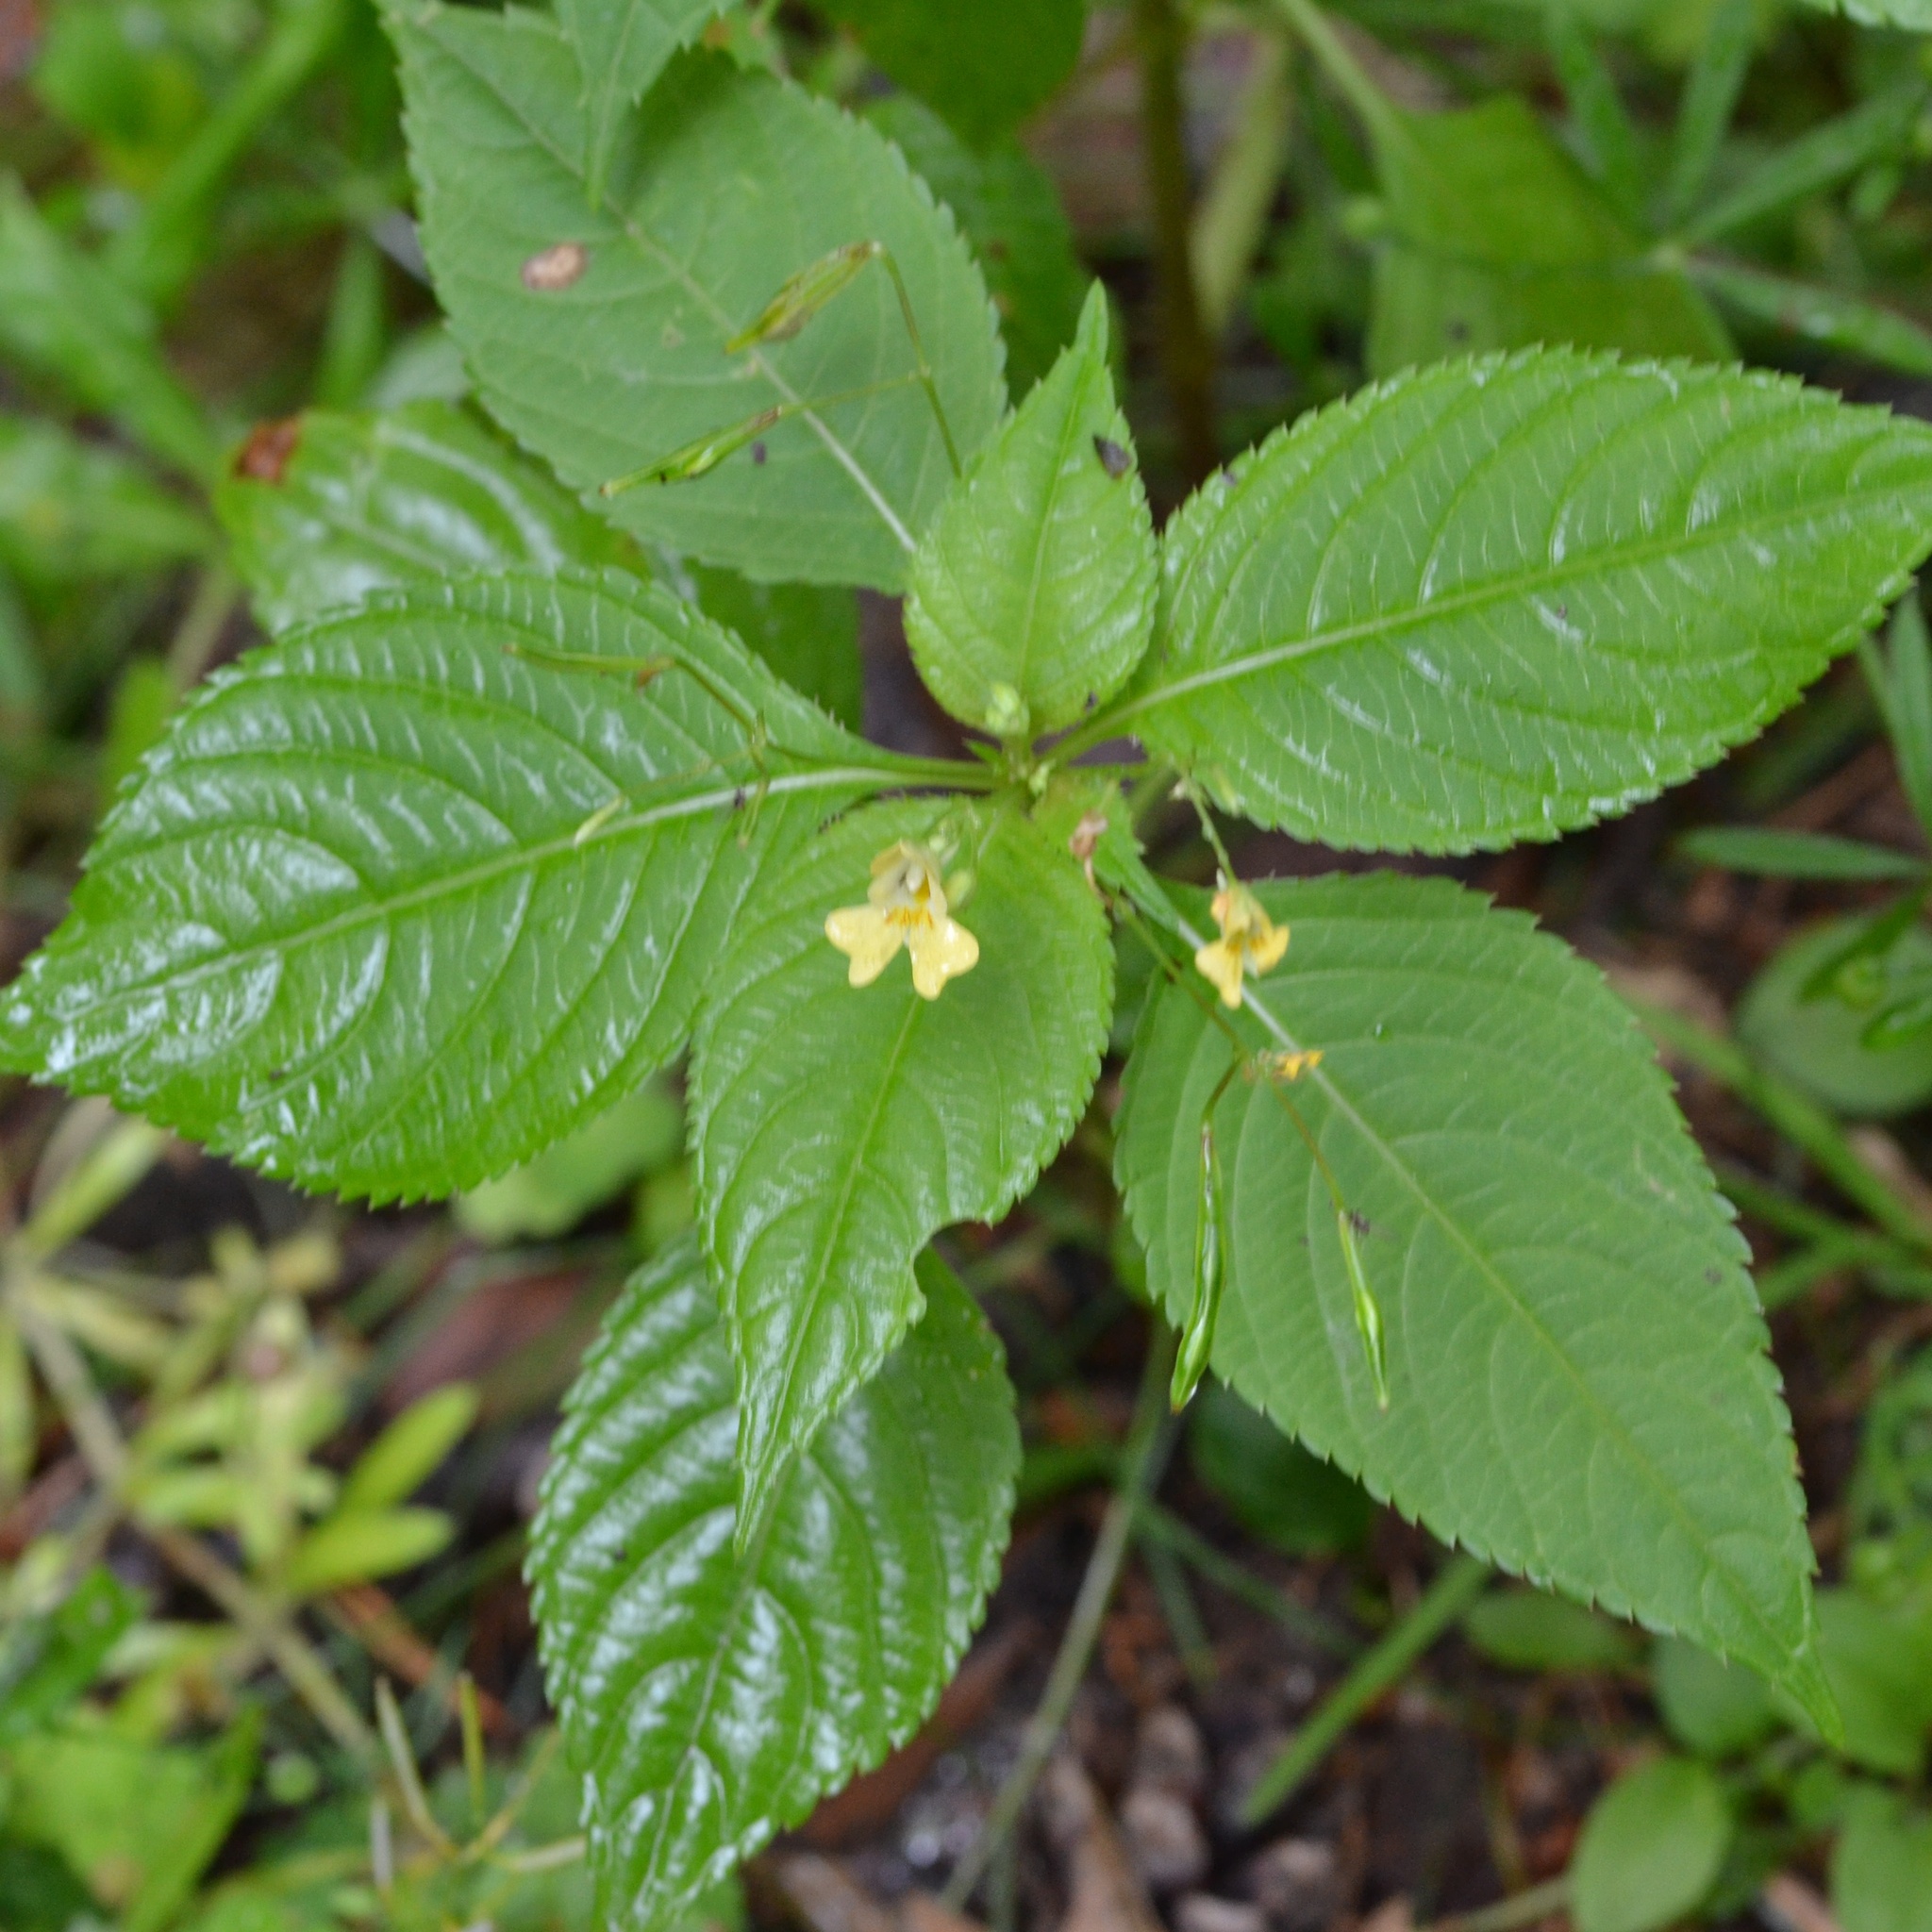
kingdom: Plantae
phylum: Tracheophyta
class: Magnoliopsida
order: Ericales
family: Balsaminaceae
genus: Impatiens
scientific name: Impatiens parviflora
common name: Small balsam
